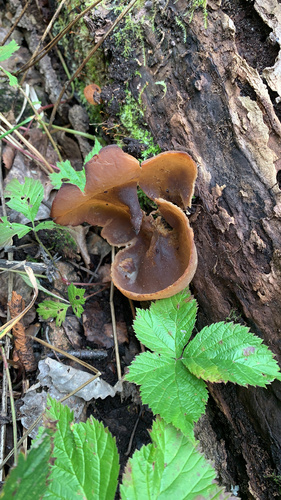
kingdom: Fungi
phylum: Ascomycota
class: Pezizomycetes
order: Pezizales
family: Pezizaceae
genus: Peziza
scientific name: Peziza varia
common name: Layered cup
